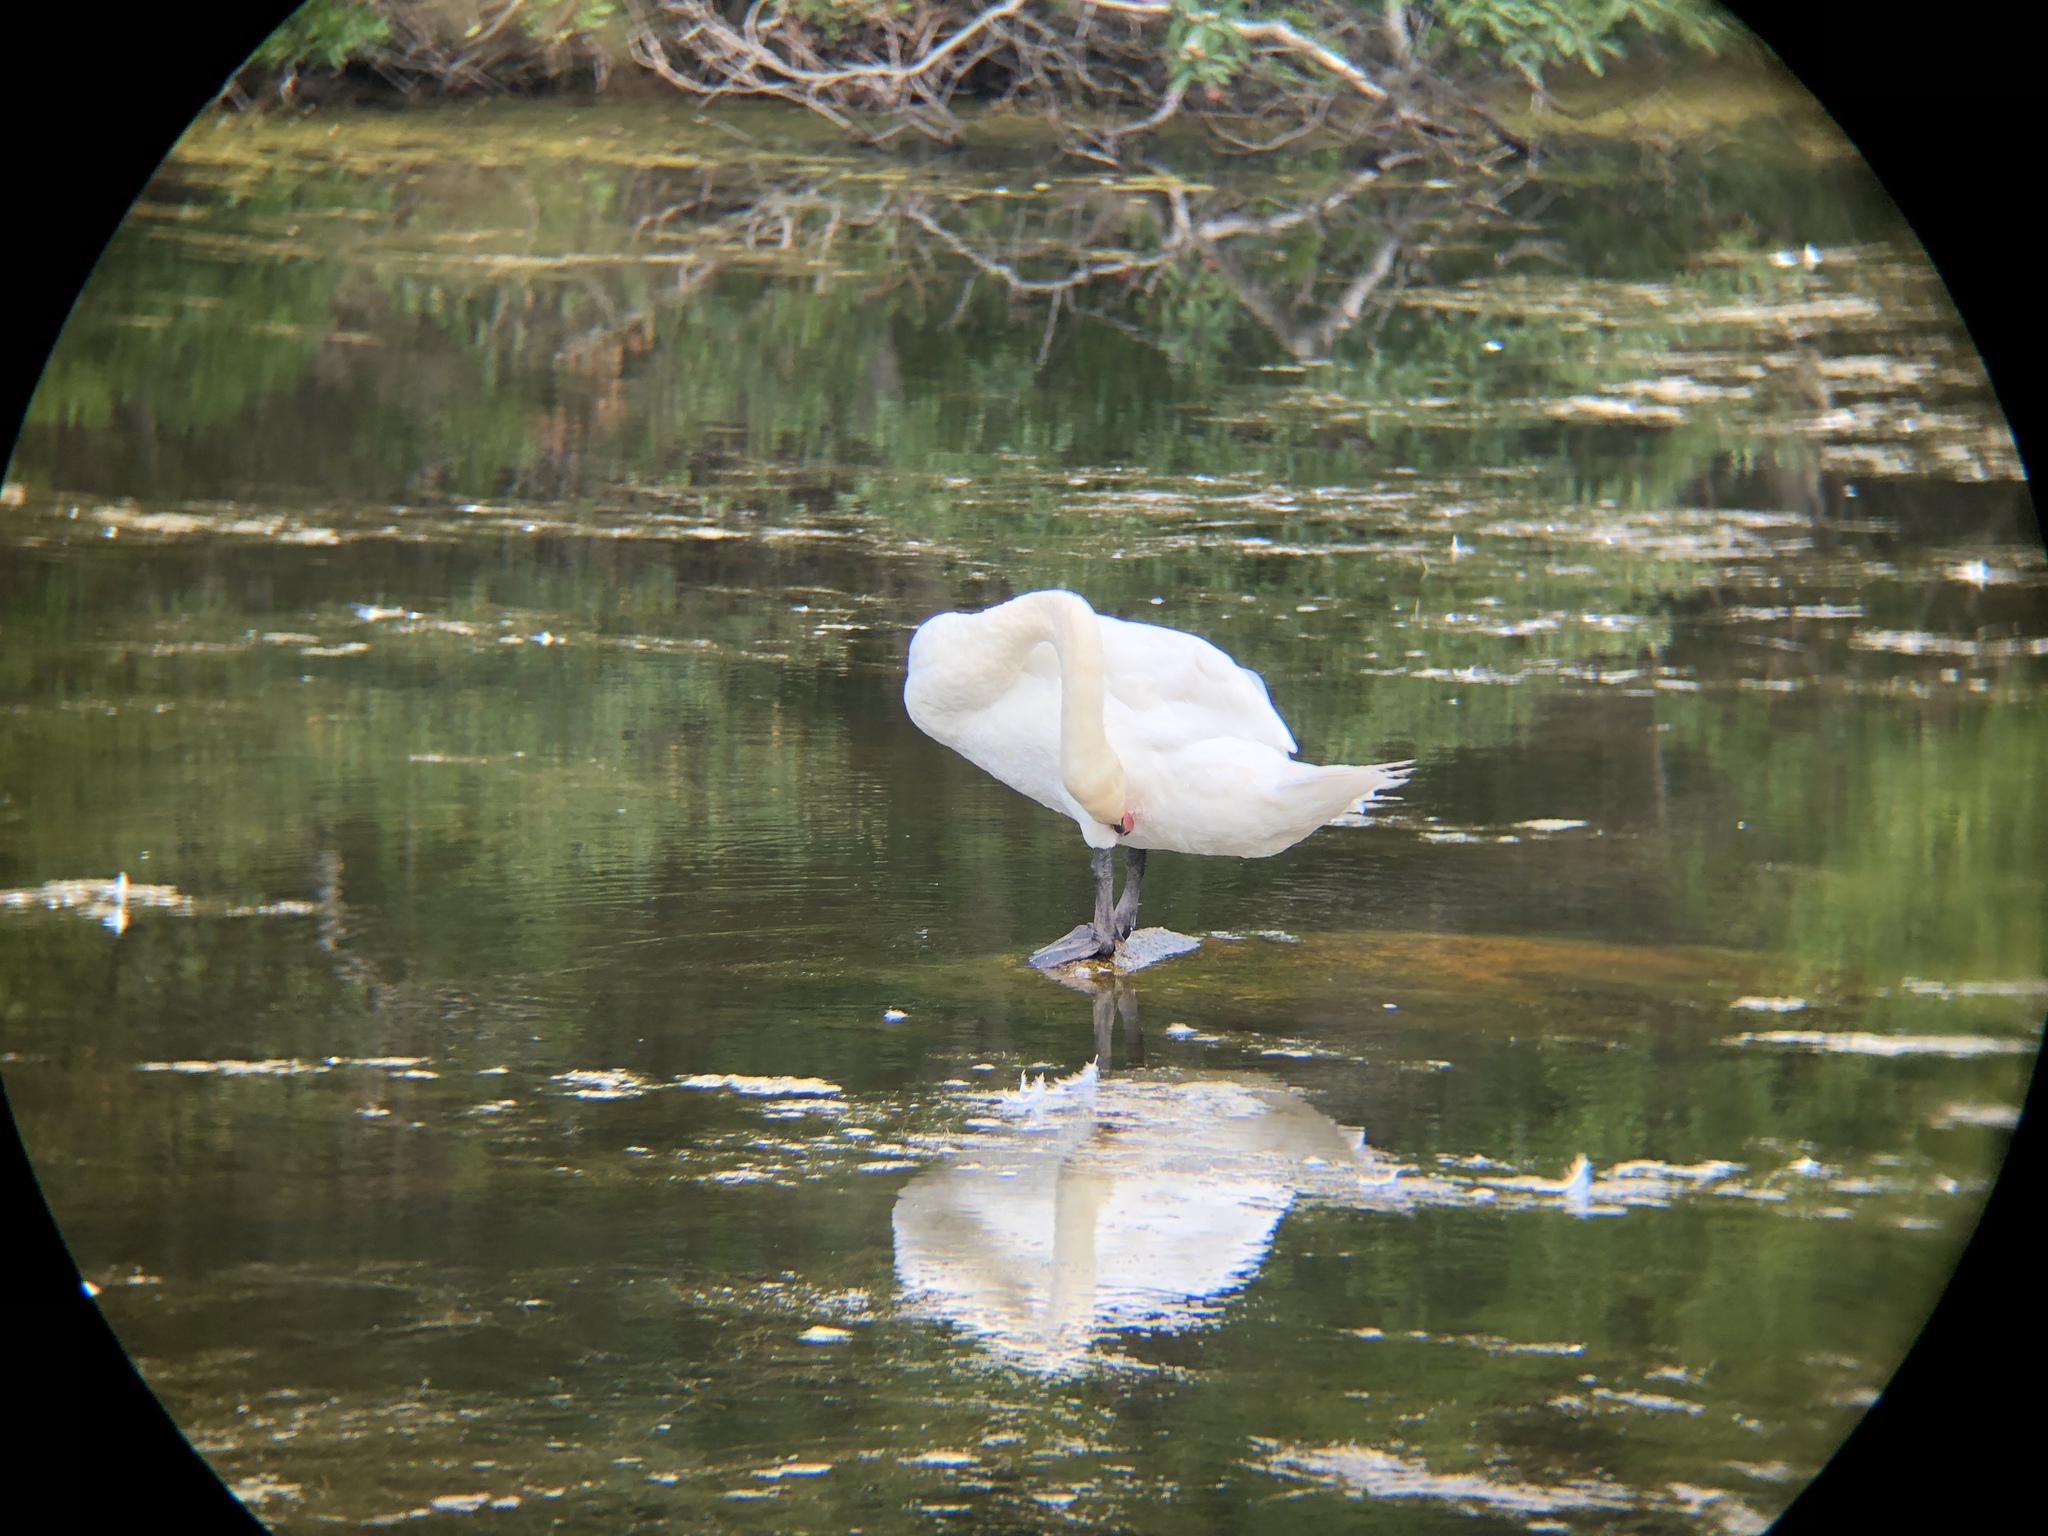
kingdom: Animalia
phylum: Chordata
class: Aves
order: Anseriformes
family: Anatidae
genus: Cygnus
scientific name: Cygnus olor
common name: Mute swan
